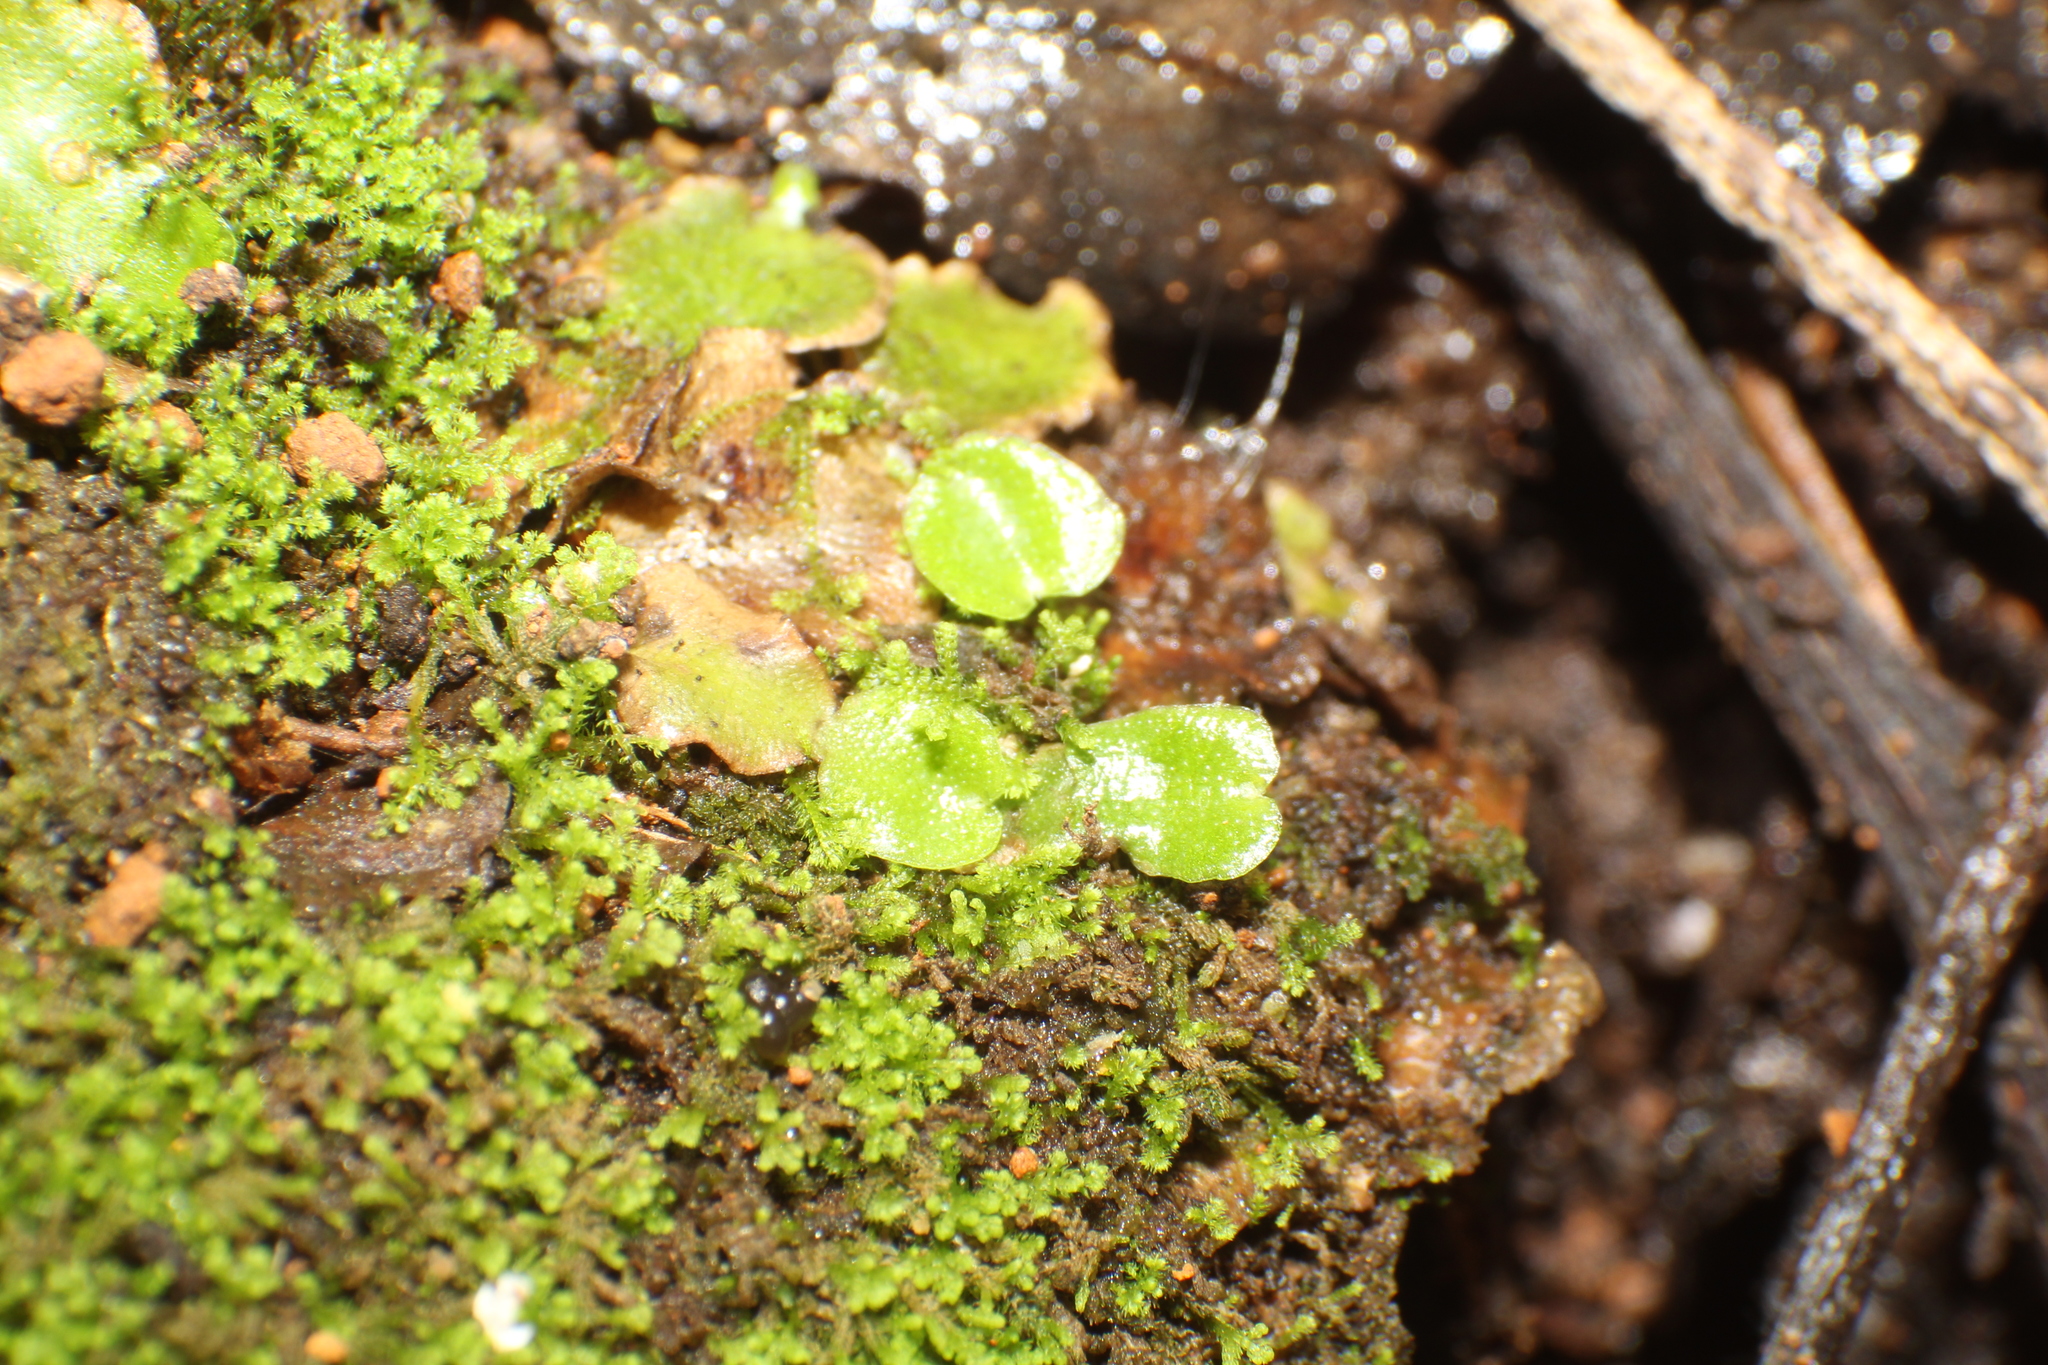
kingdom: Plantae
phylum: Marchantiophyta
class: Marchantiopsida
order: Lunulariales
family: Lunulariaceae
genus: Lunularia
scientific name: Lunularia cruciata
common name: Crescent-cup liverwort
